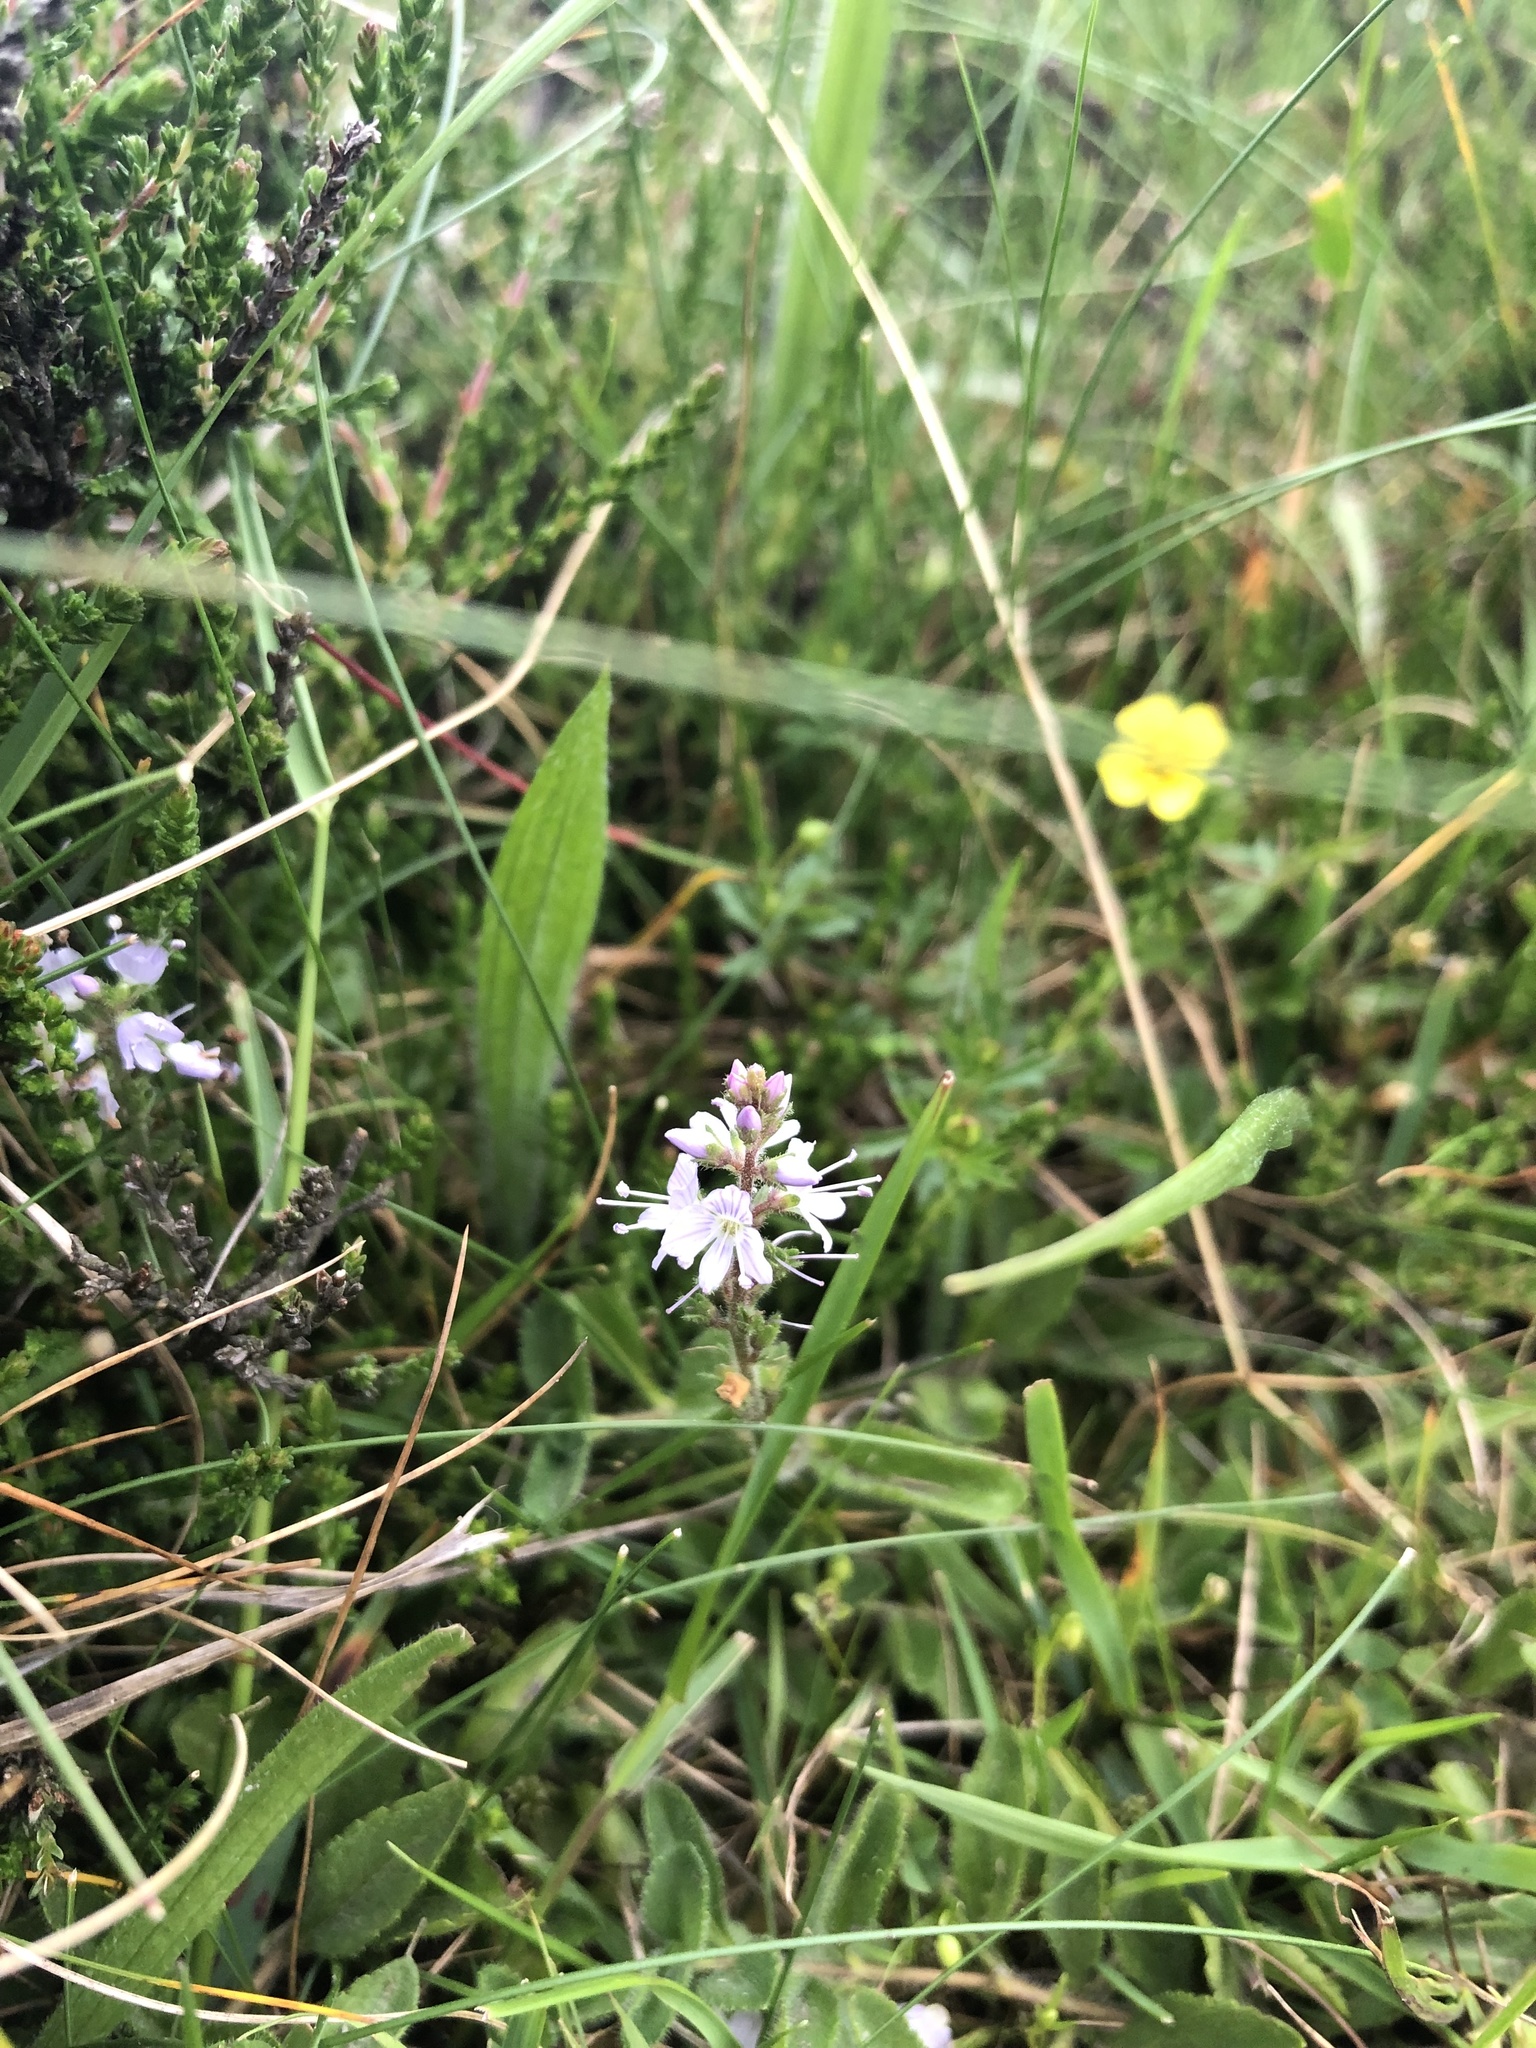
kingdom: Plantae
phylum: Tracheophyta
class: Magnoliopsida
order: Lamiales
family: Plantaginaceae
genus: Veronica
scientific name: Veronica officinalis
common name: Common speedwell
